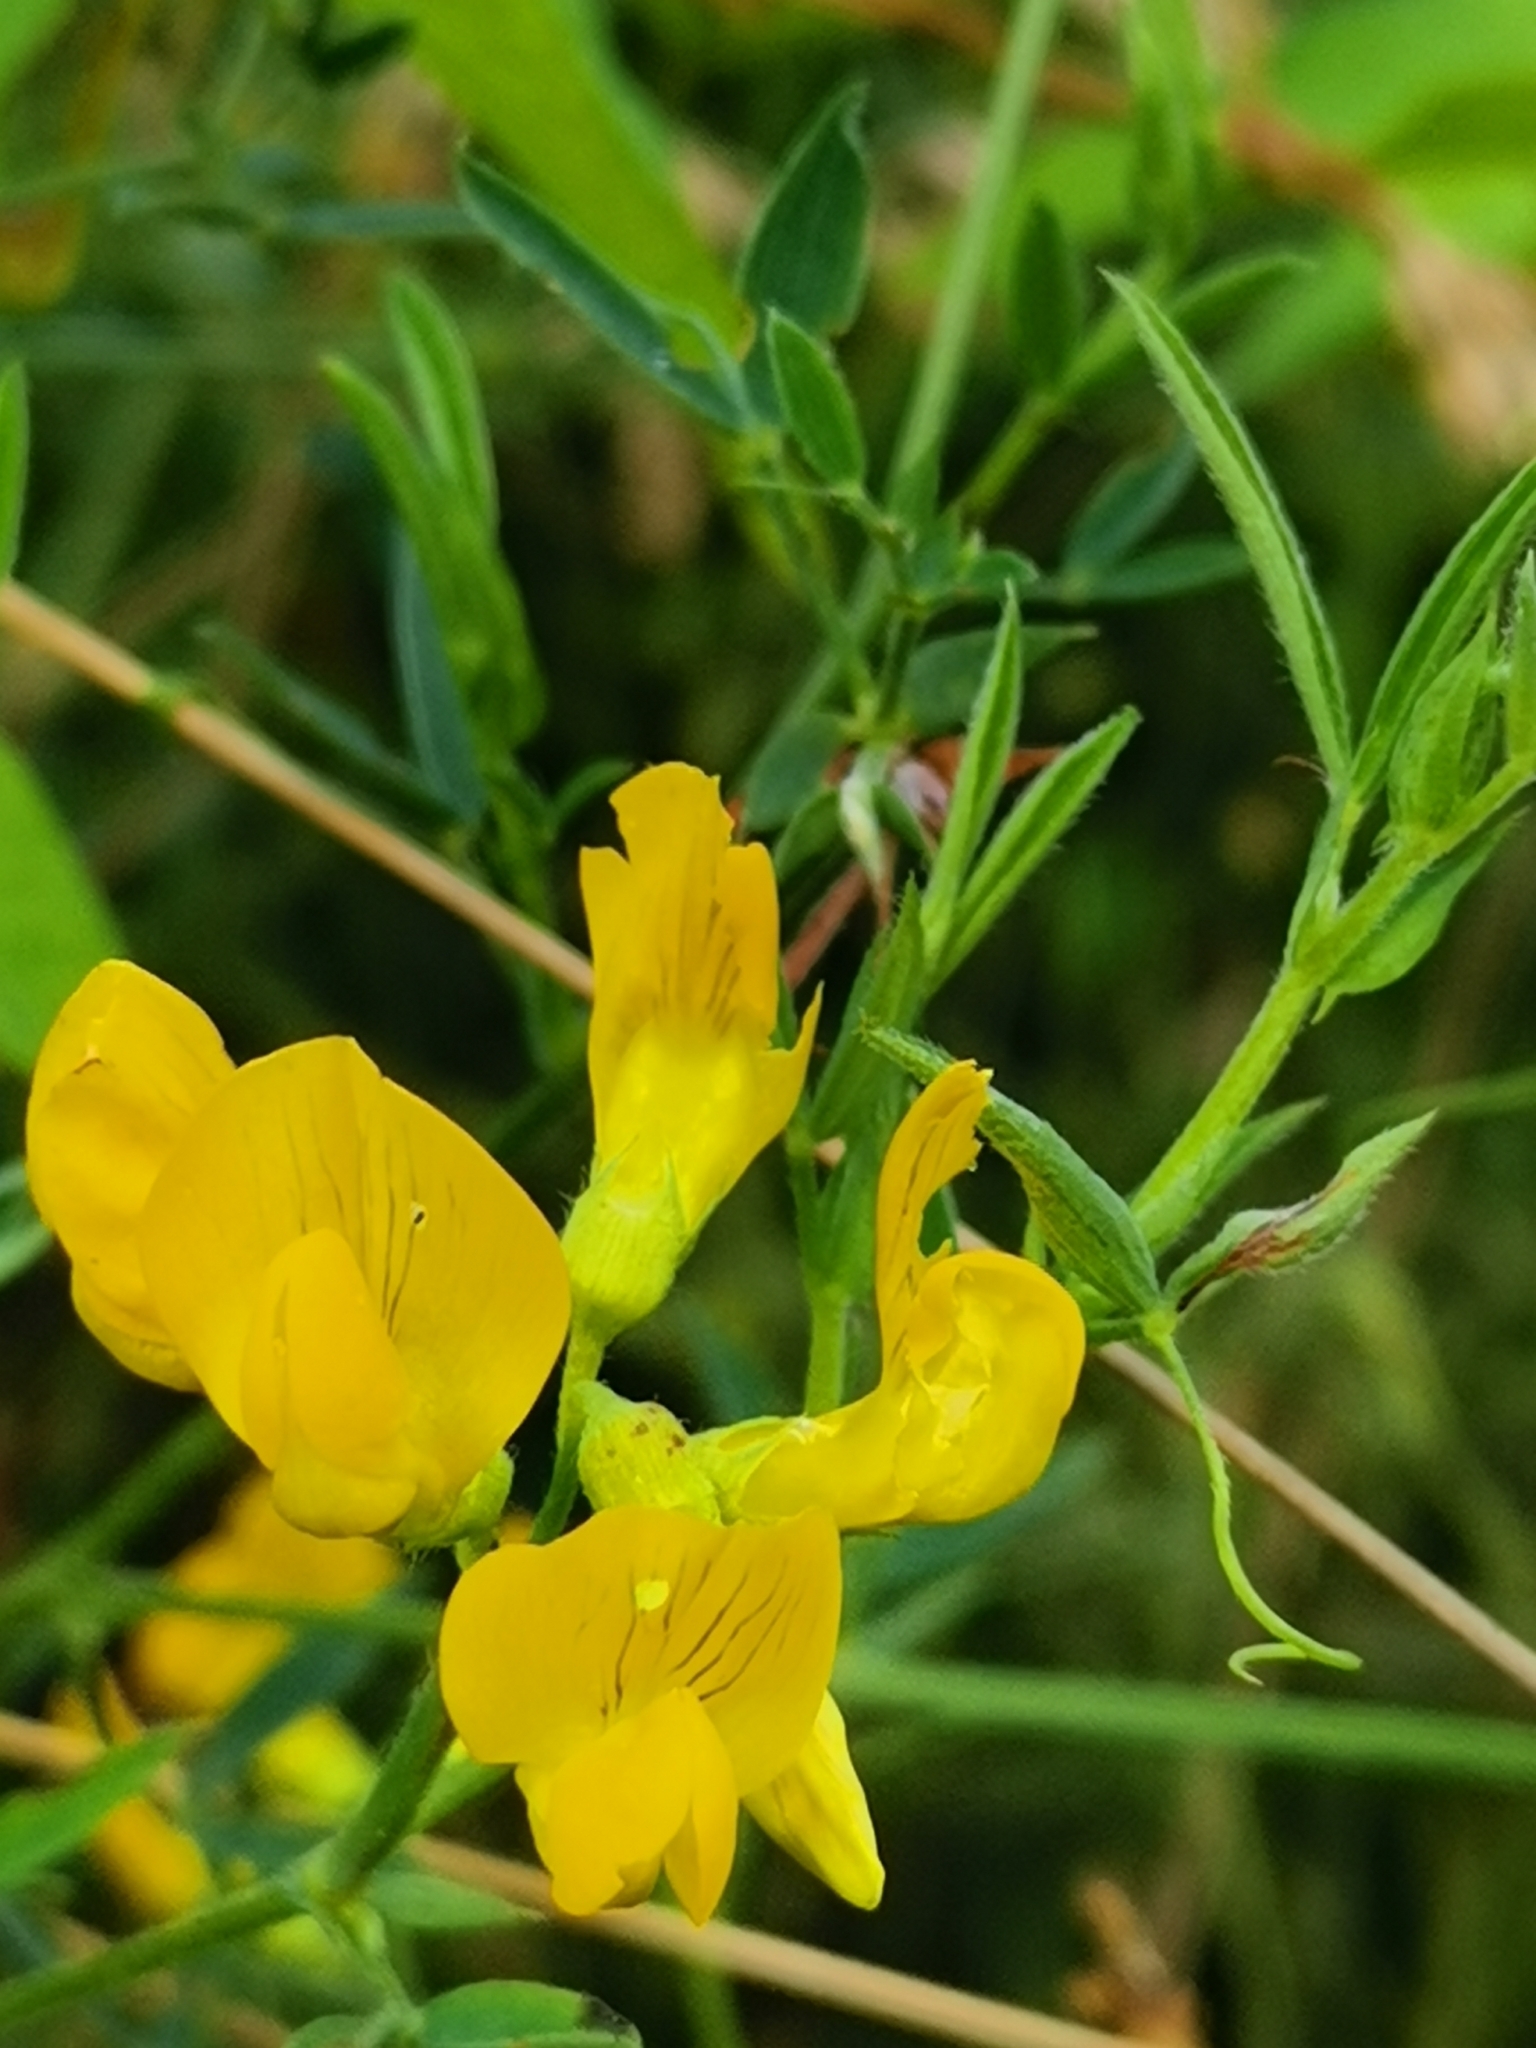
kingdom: Plantae
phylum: Tracheophyta
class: Magnoliopsida
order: Fabales
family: Fabaceae
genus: Lathyrus
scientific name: Lathyrus pratensis
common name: Meadow vetchling
